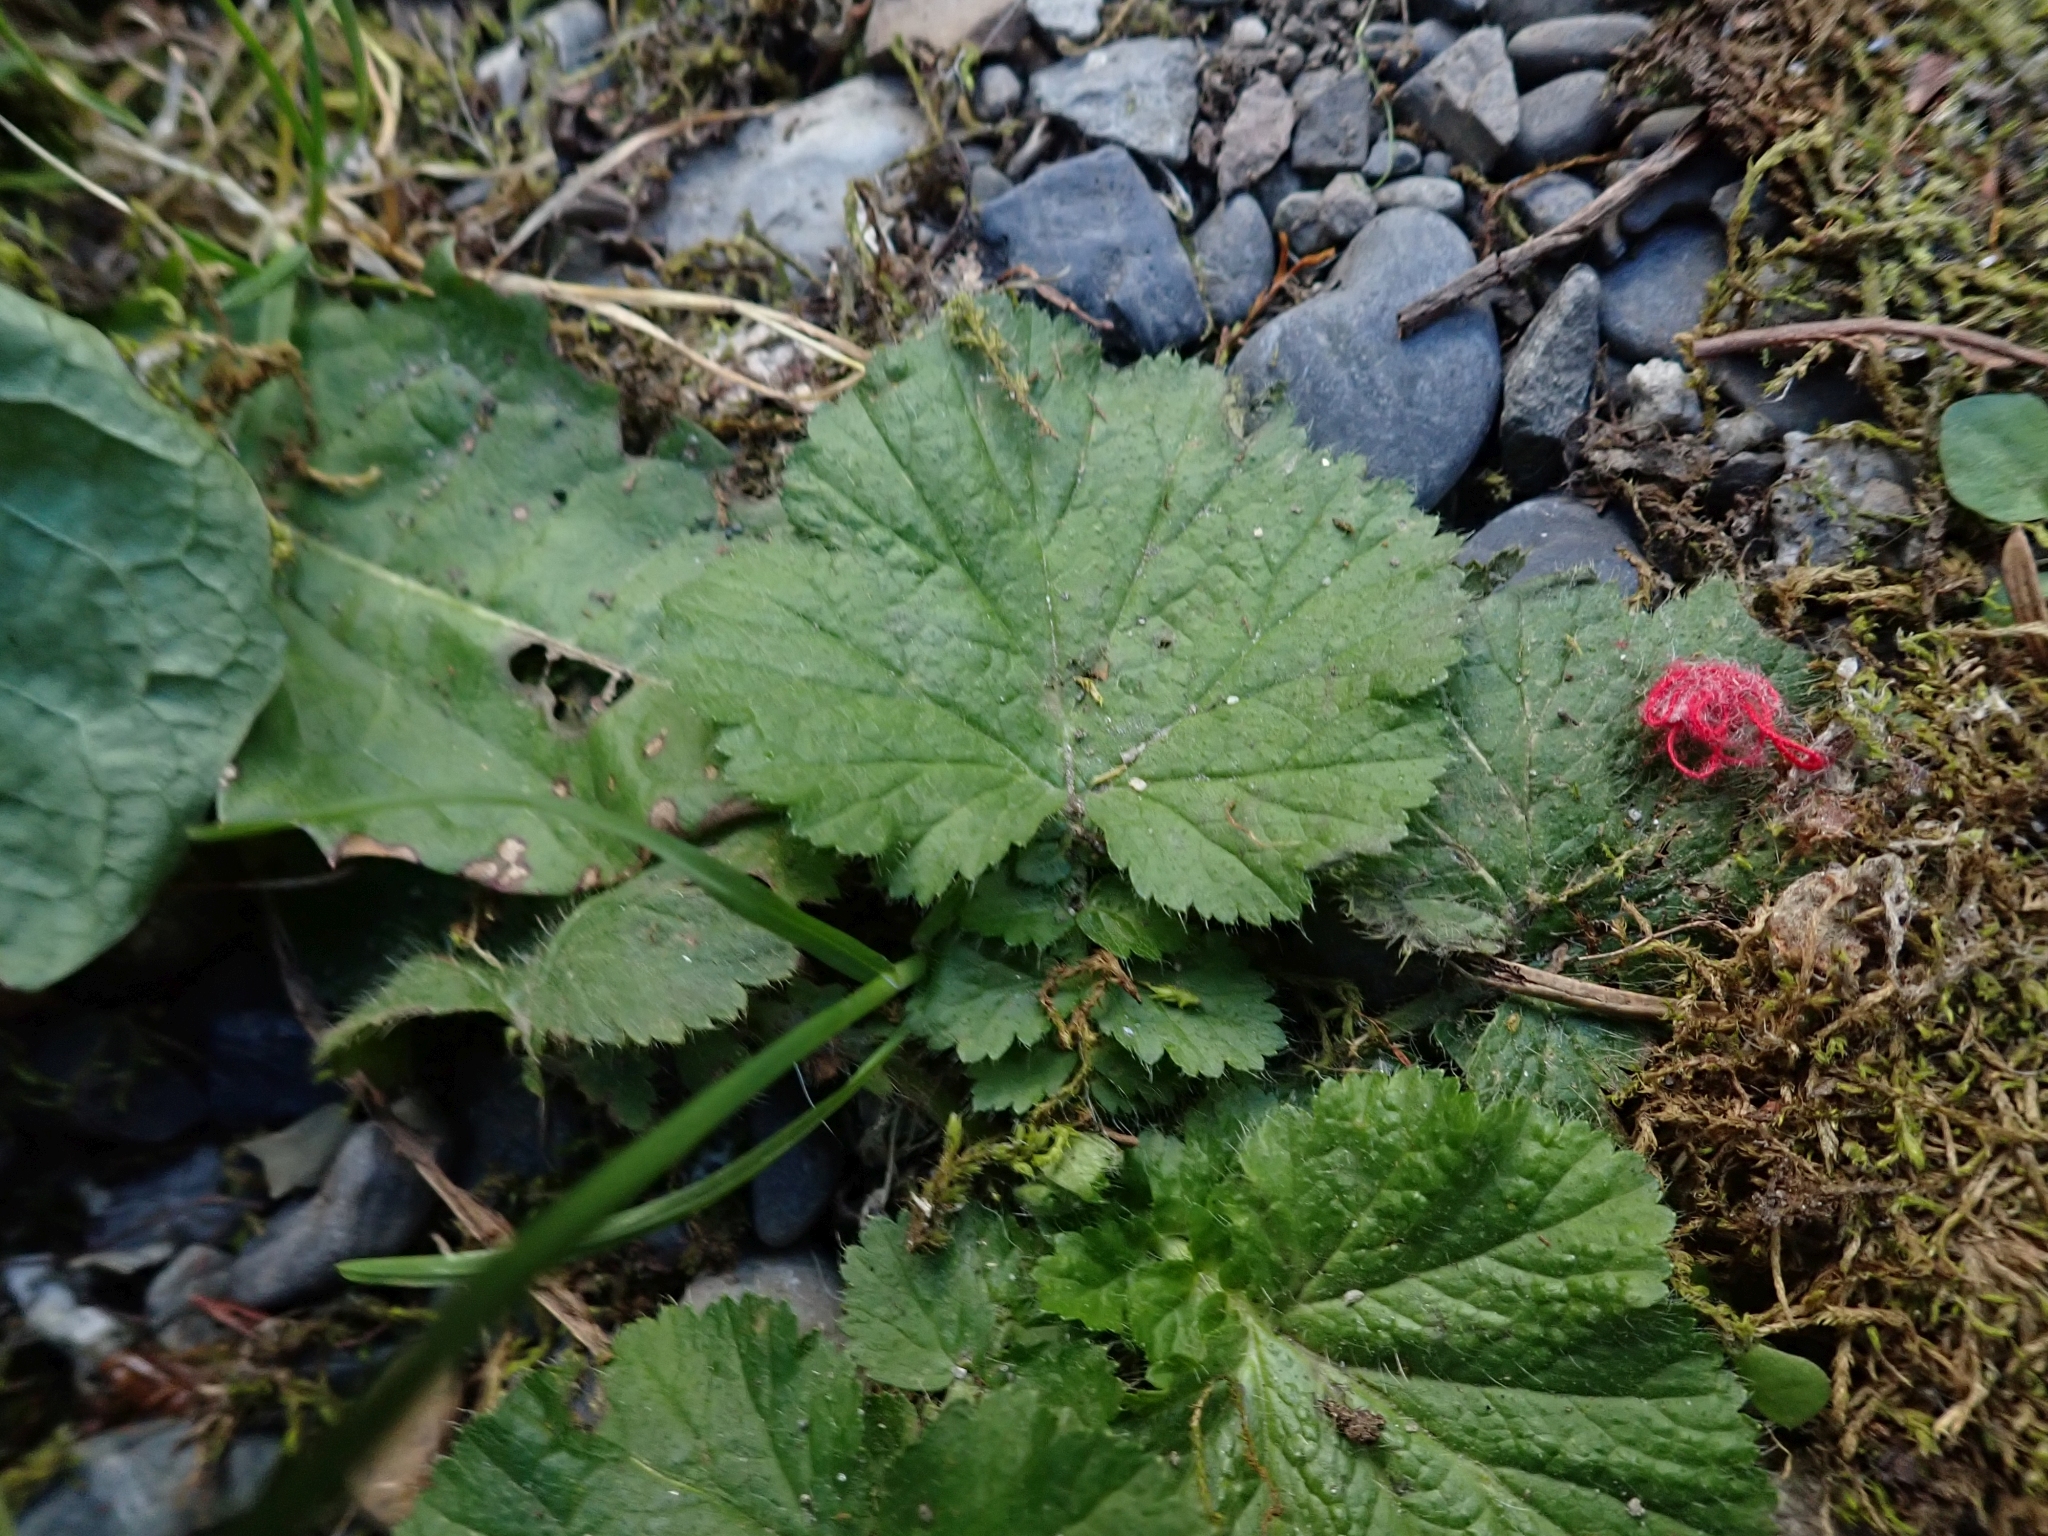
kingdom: Plantae
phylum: Tracheophyta
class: Magnoliopsida
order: Rosales
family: Rosaceae
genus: Geum
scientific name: Geum macrophyllum
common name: Large-leaved avens
